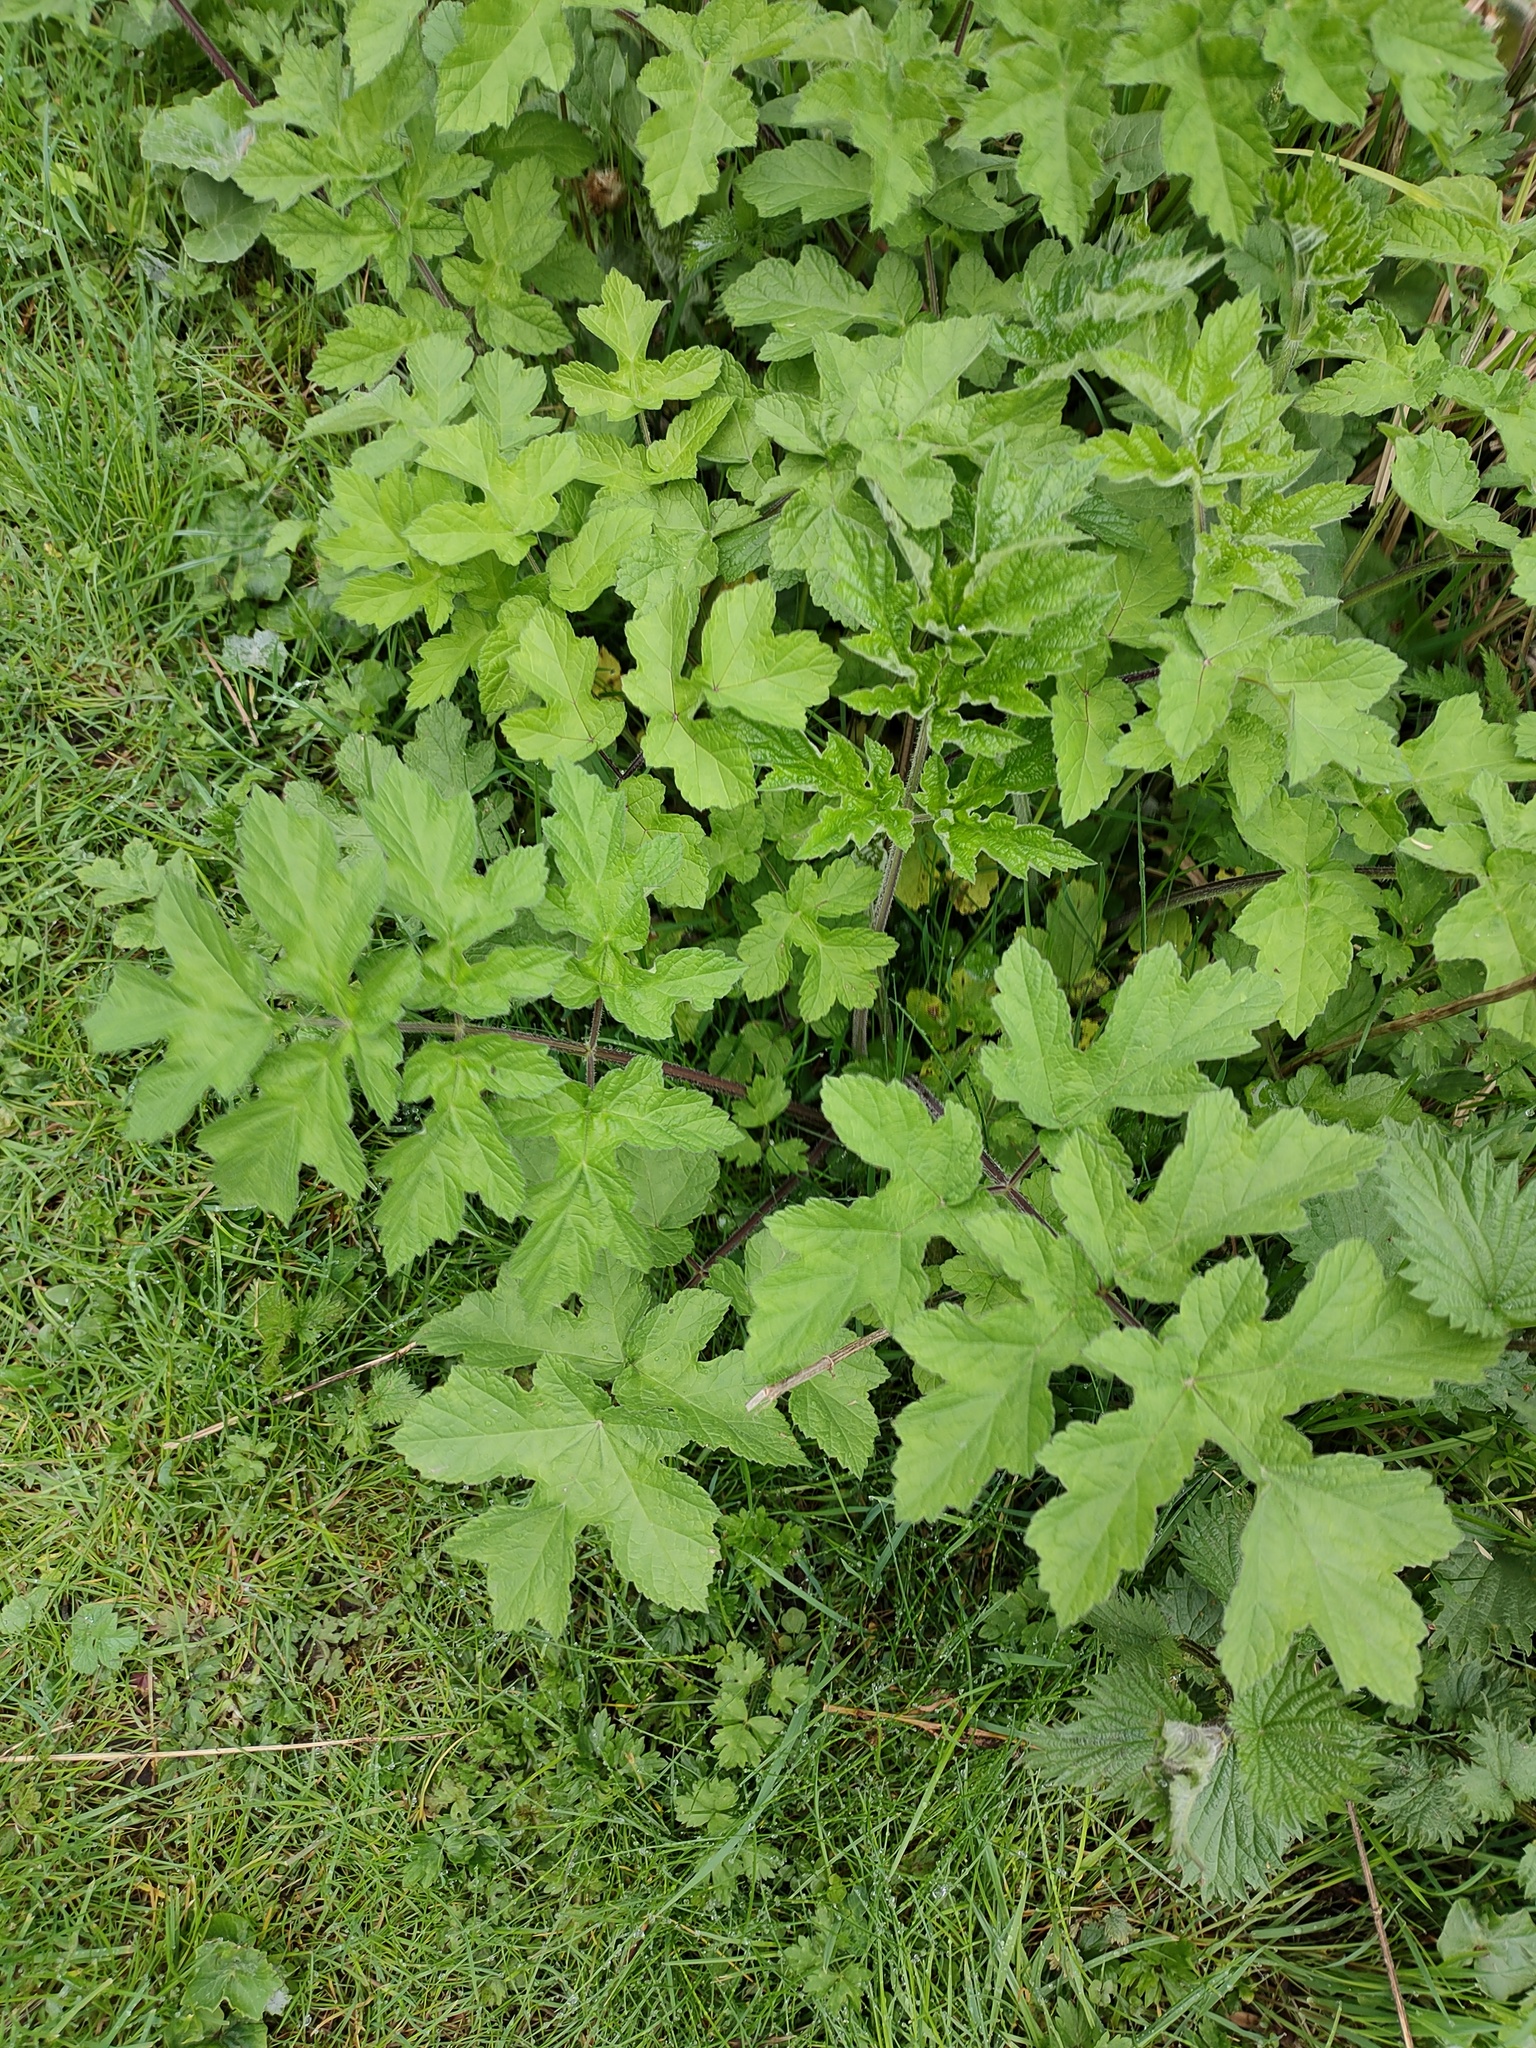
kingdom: Plantae
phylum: Tracheophyta
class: Magnoliopsida
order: Apiales
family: Apiaceae
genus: Heracleum
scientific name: Heracleum sphondylium
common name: Hogweed
